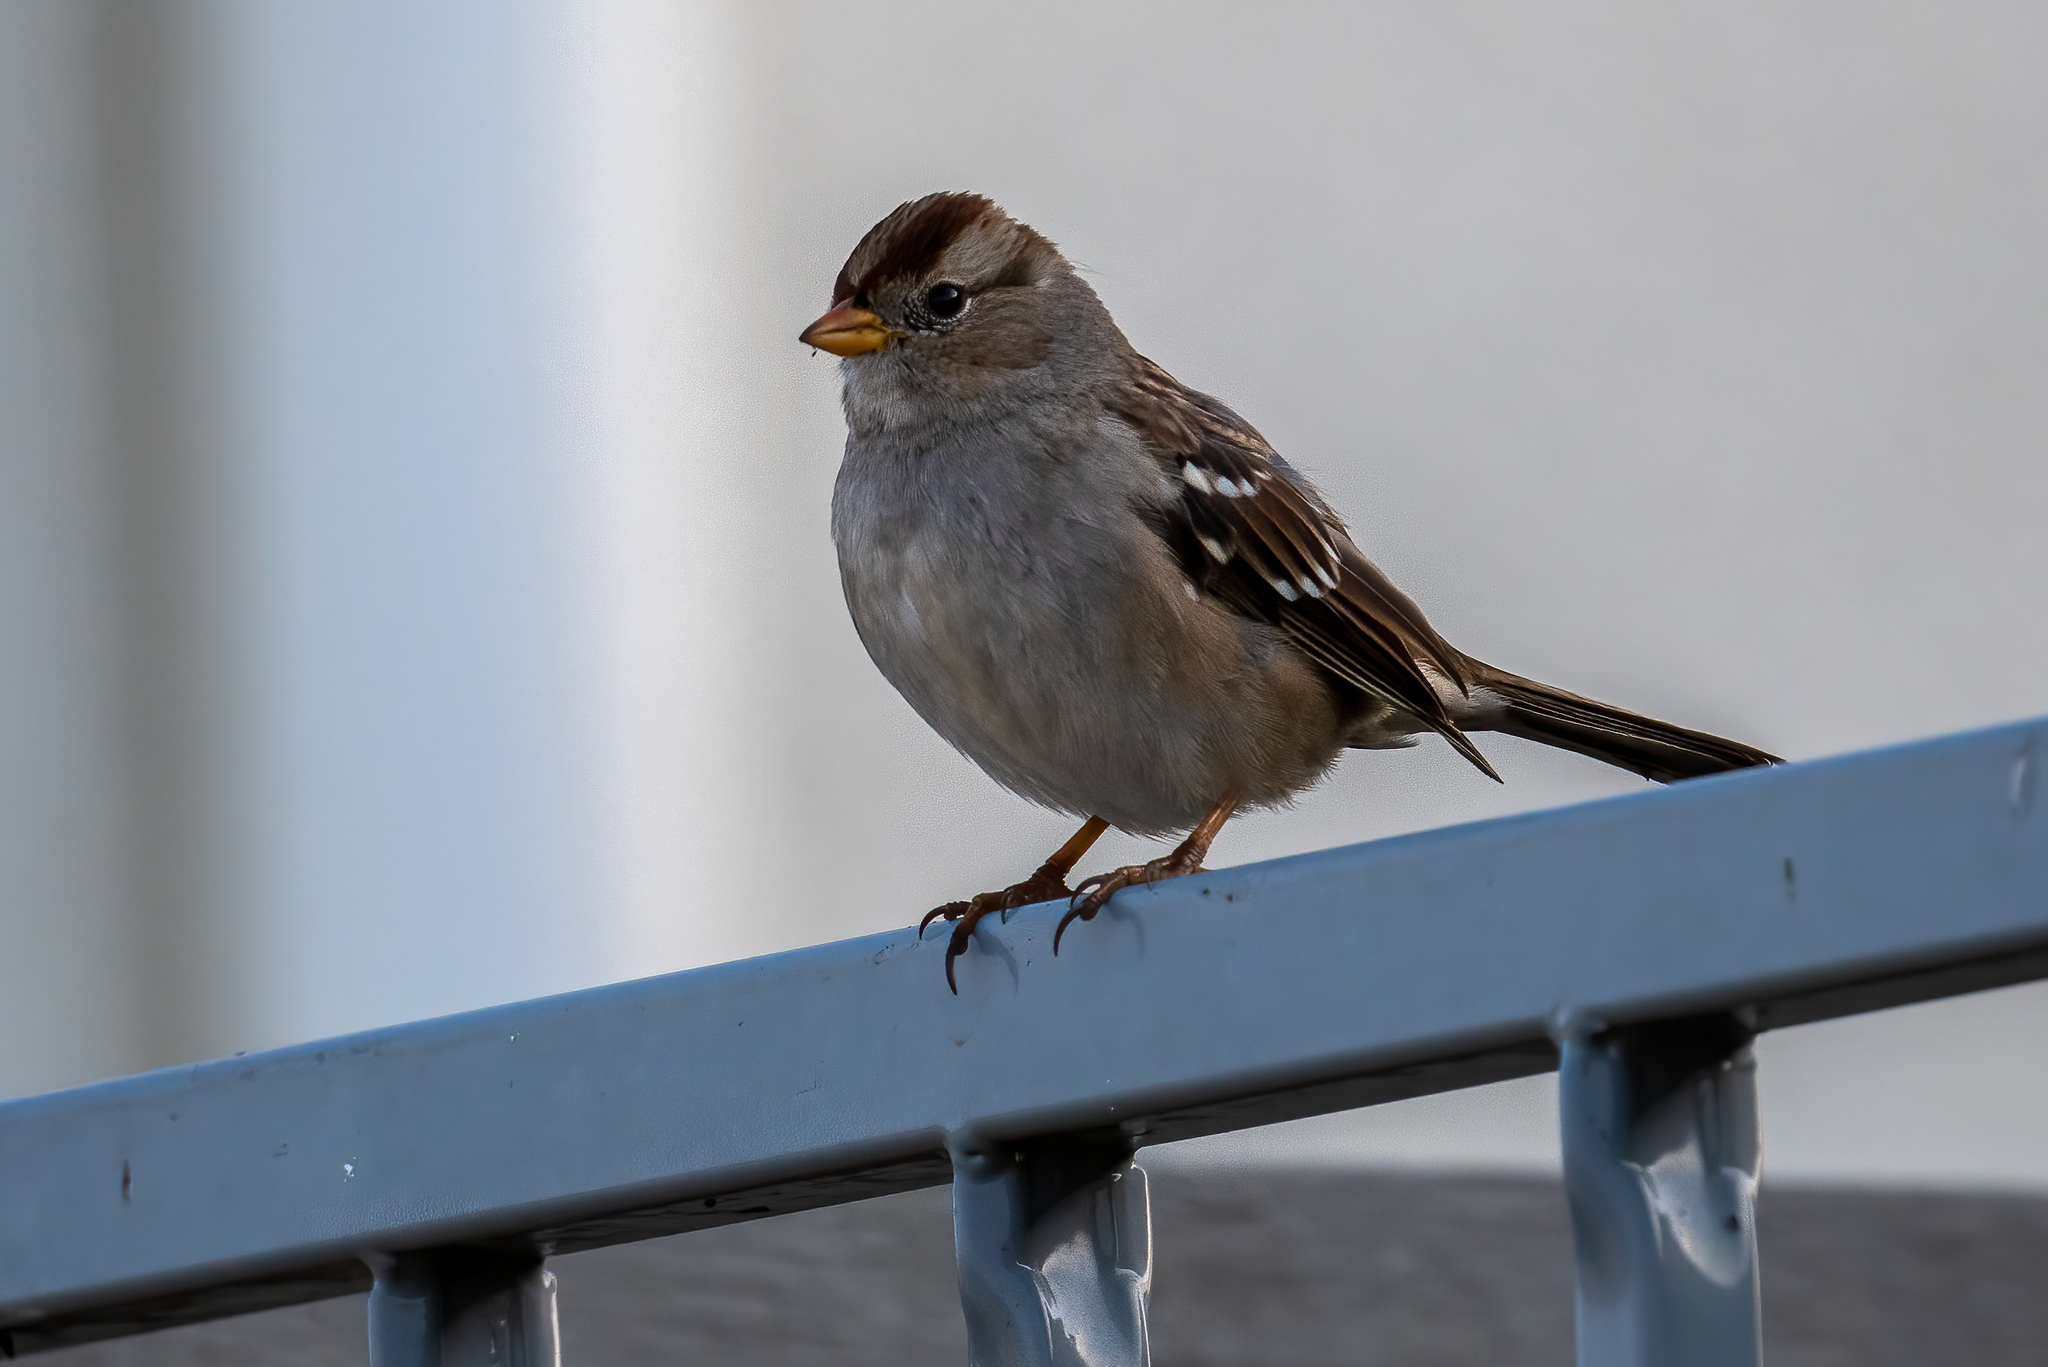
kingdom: Animalia
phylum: Chordata
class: Aves
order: Passeriformes
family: Passerellidae
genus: Zonotrichia
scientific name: Zonotrichia leucophrys
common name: White-crowned sparrow
